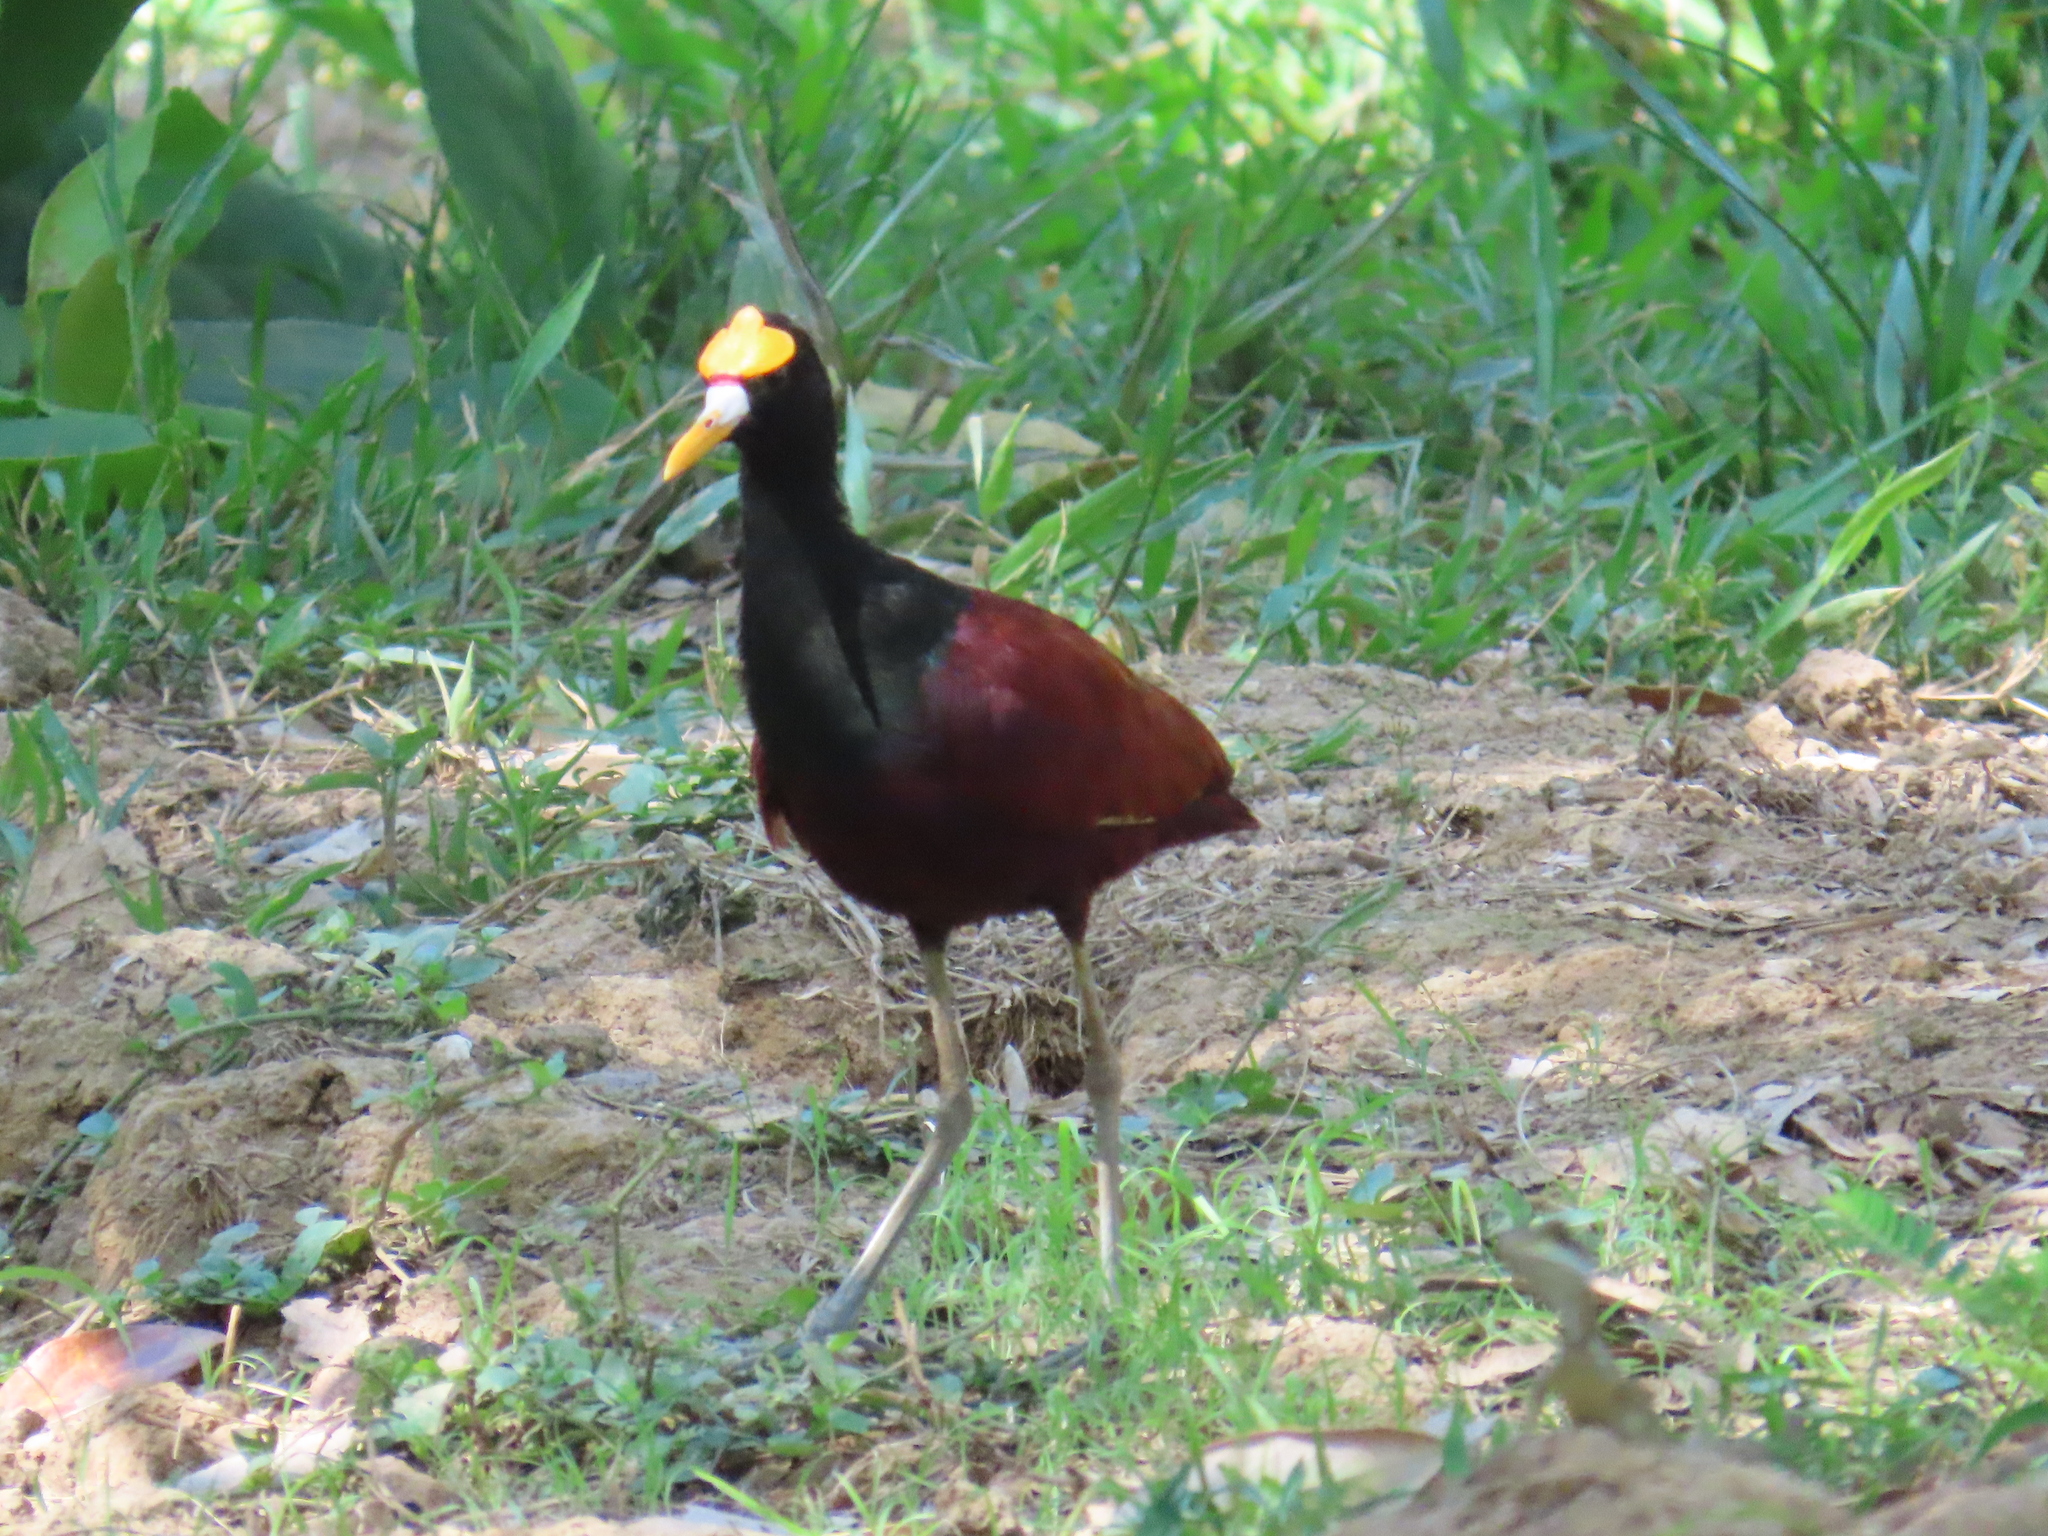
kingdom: Animalia
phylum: Chordata
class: Aves
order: Charadriiformes
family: Jacanidae
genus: Jacana
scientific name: Jacana spinosa
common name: Northern jacana
